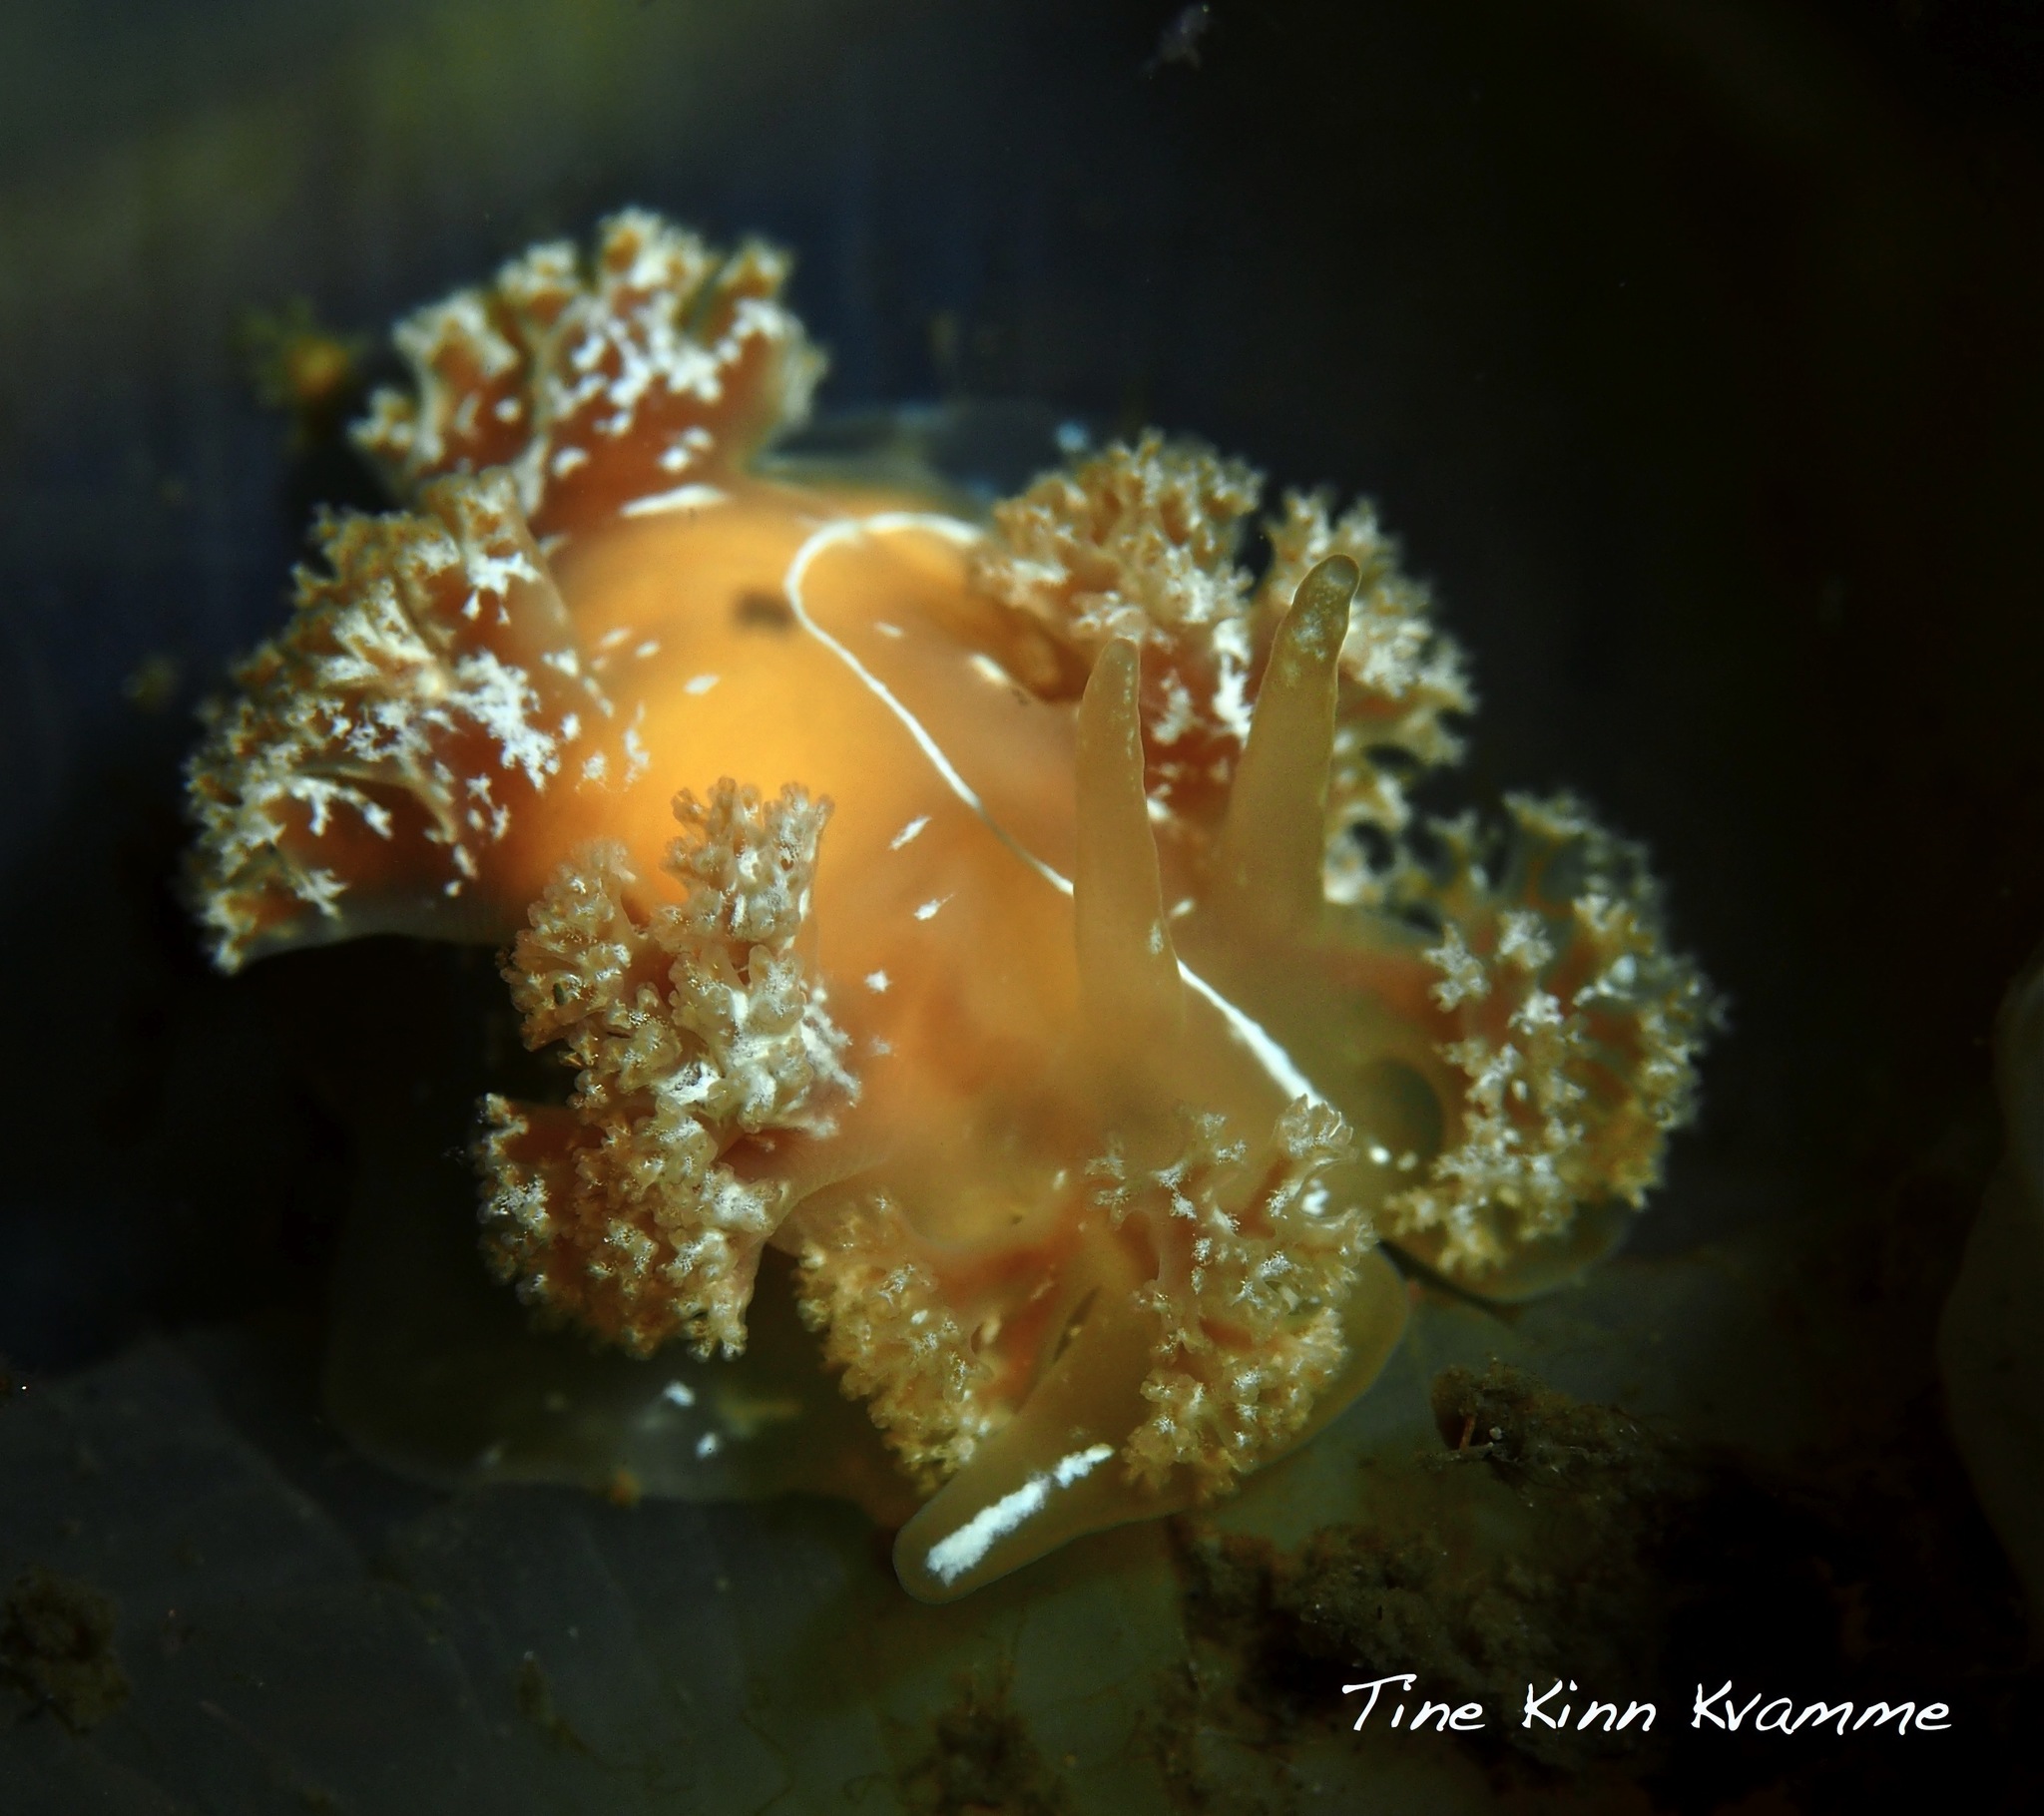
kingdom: Animalia
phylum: Mollusca
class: Gastropoda
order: Nudibranchia
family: Heroidae
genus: Hero
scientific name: Hero formosa
